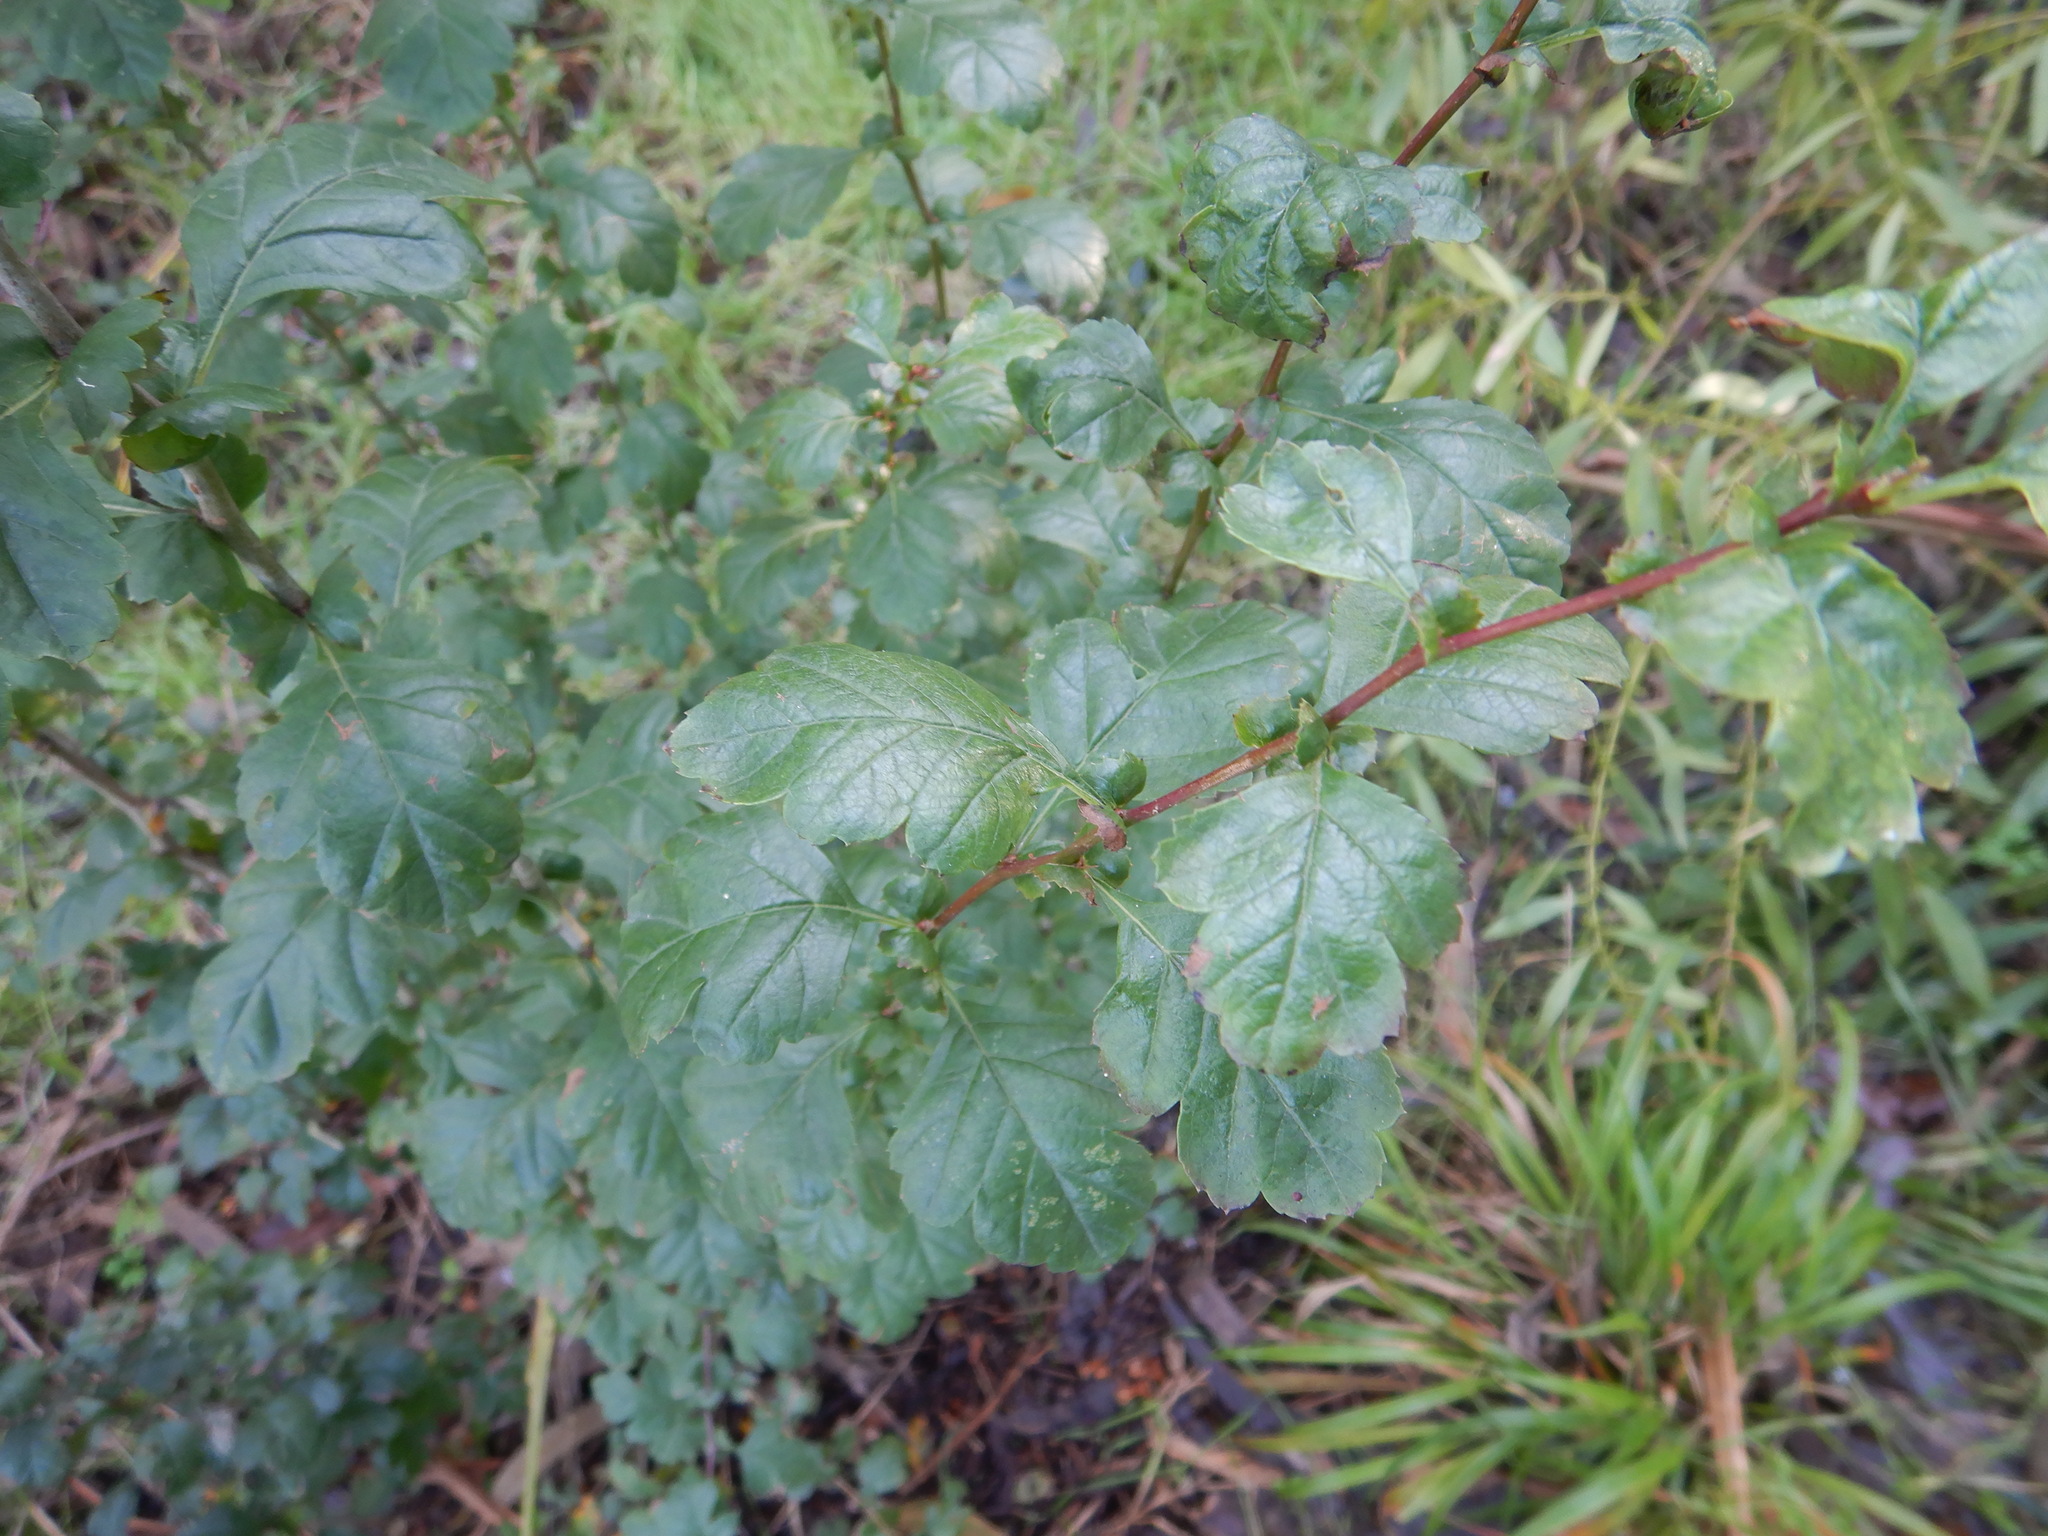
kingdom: Plantae
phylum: Tracheophyta
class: Magnoliopsida
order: Rosales
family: Rosaceae
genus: Crataegus
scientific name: Crataegus monogyna
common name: Hawthorn
